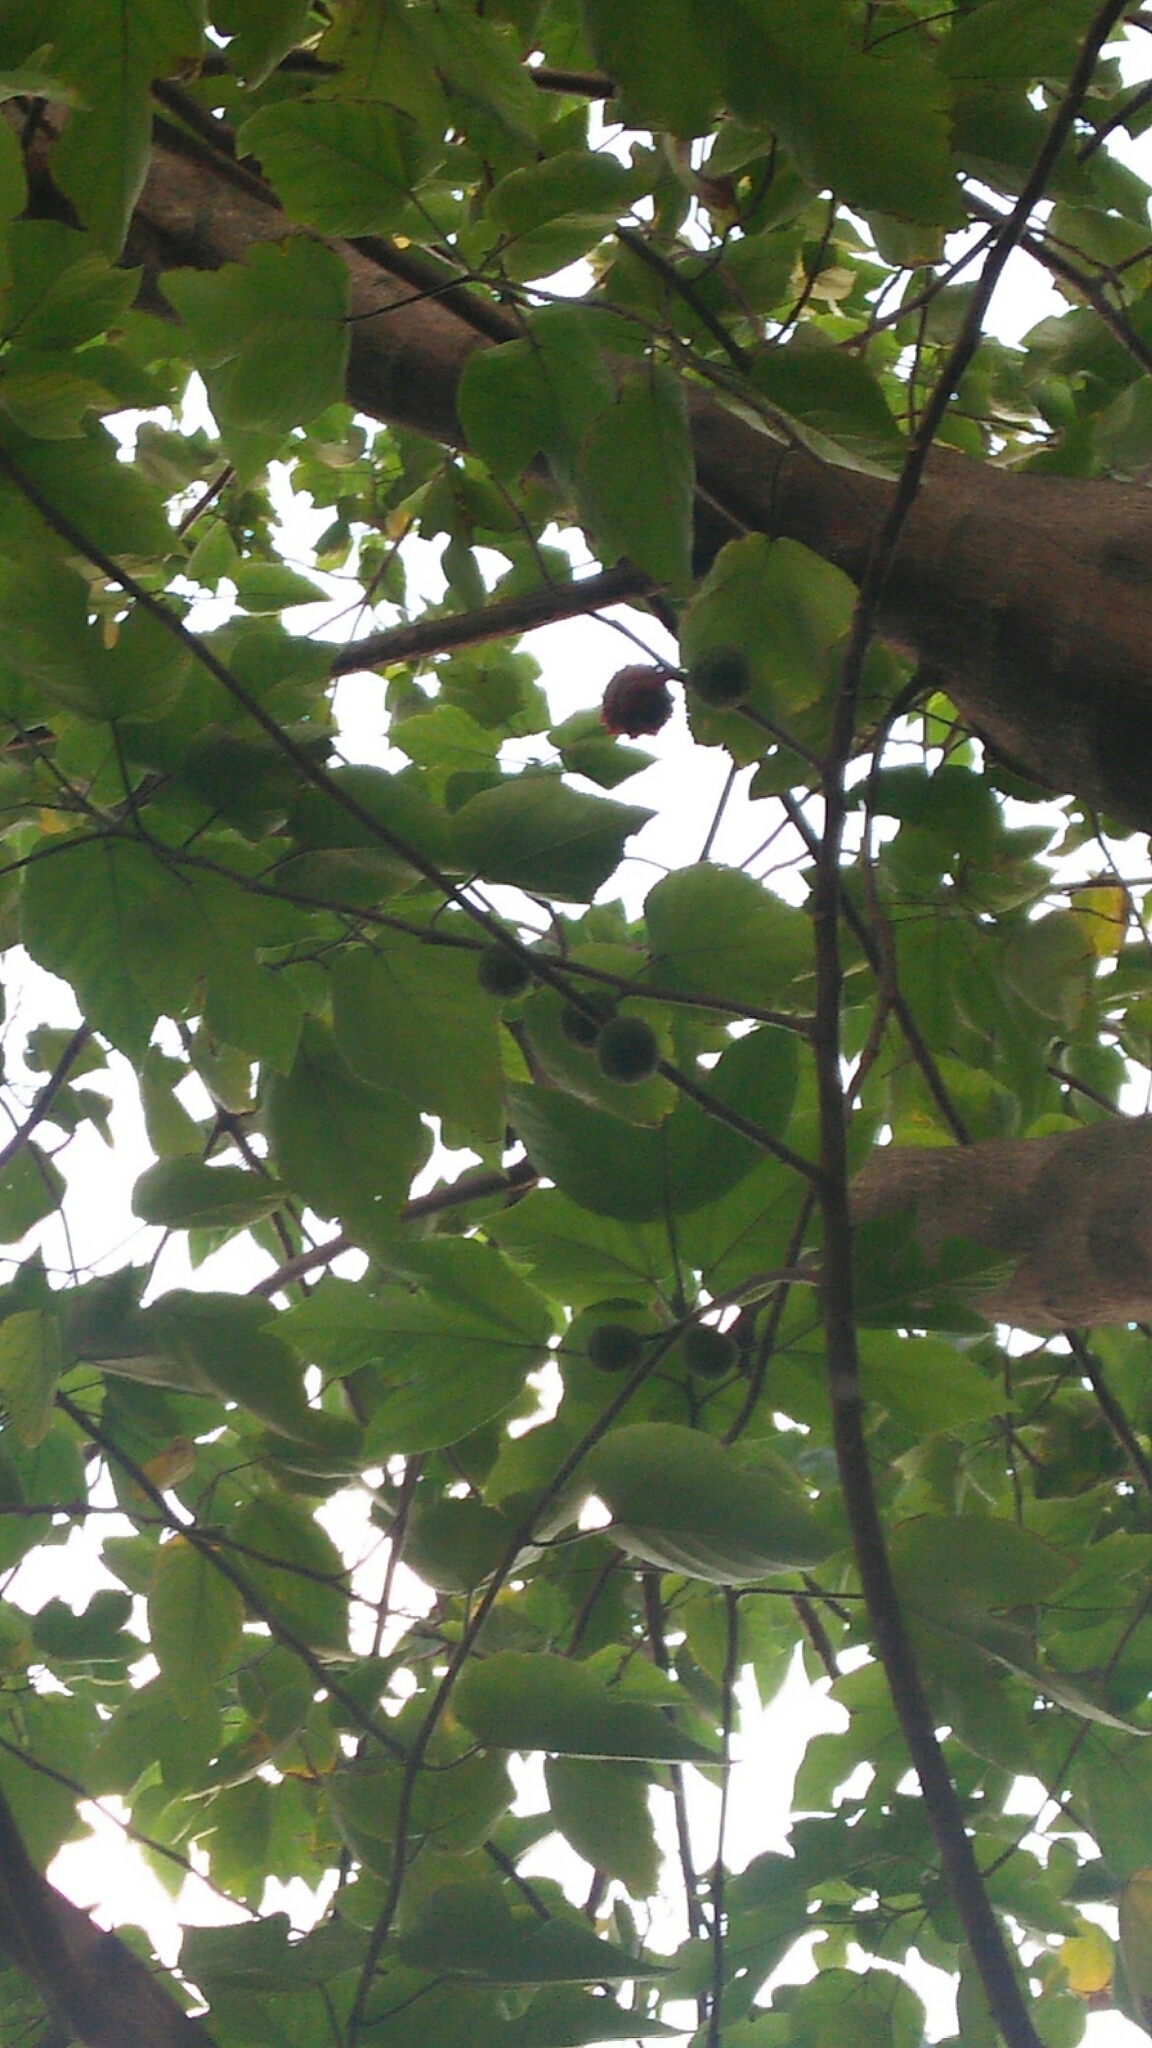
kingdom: Plantae
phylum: Tracheophyta
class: Magnoliopsida
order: Rosales
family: Moraceae
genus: Broussonetia
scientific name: Broussonetia papyrifera
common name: Paper mulberry
